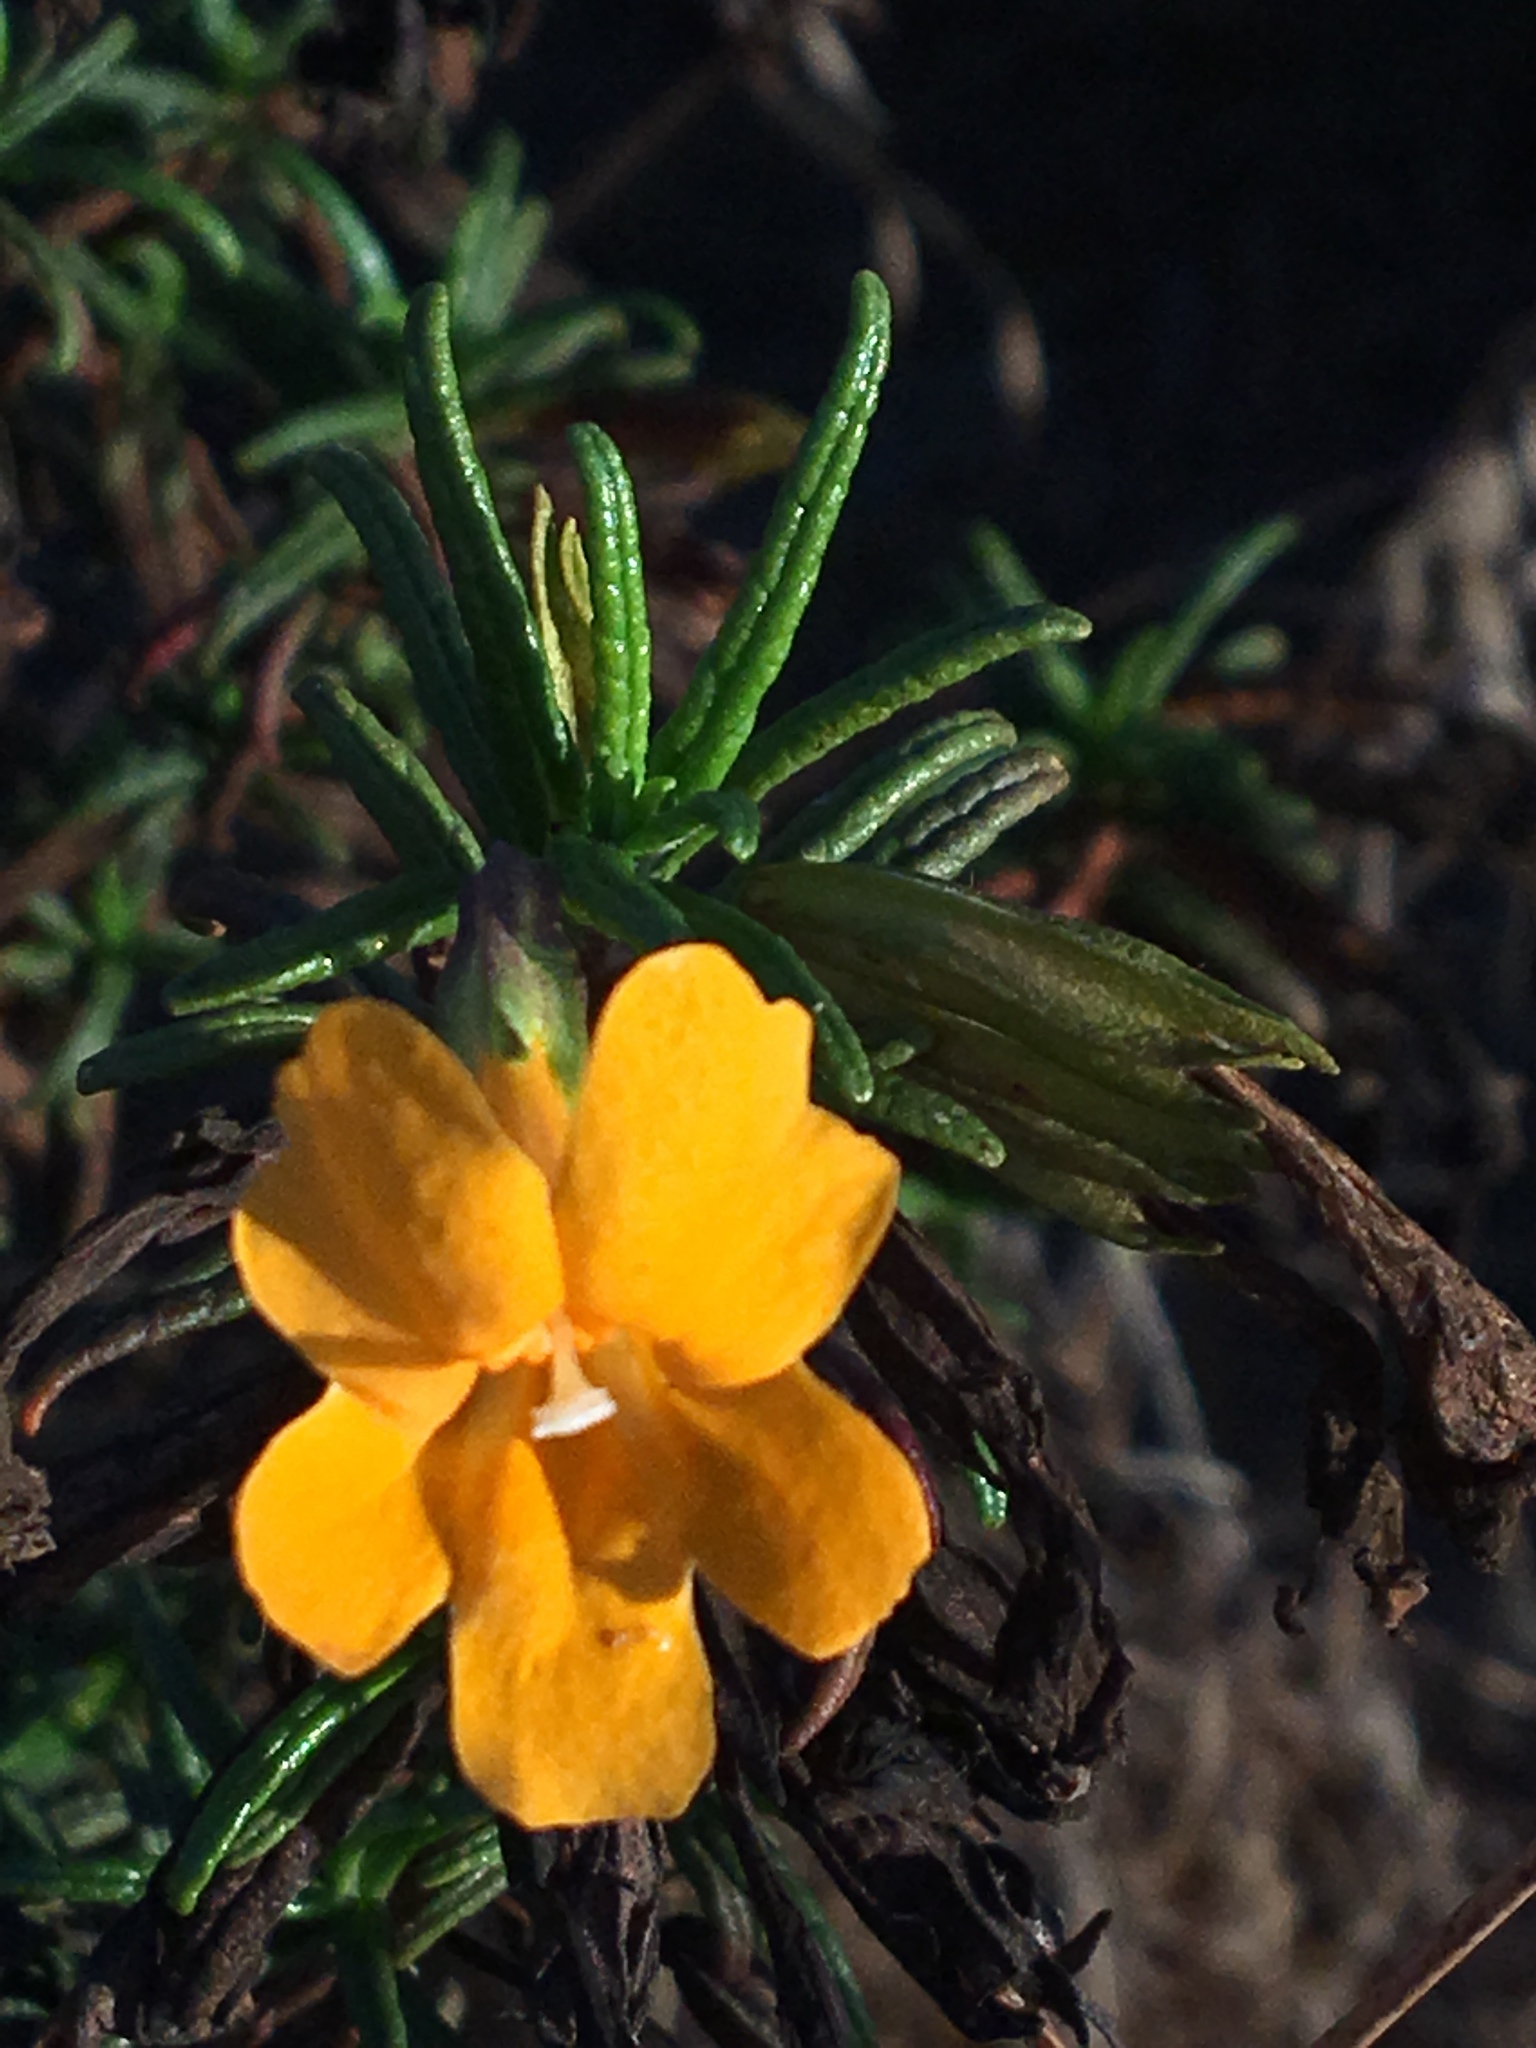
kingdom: Plantae
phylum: Tracheophyta
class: Magnoliopsida
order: Lamiales
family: Phrymaceae
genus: Diplacus
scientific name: Diplacus aurantiacus
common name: Bush monkey-flower
